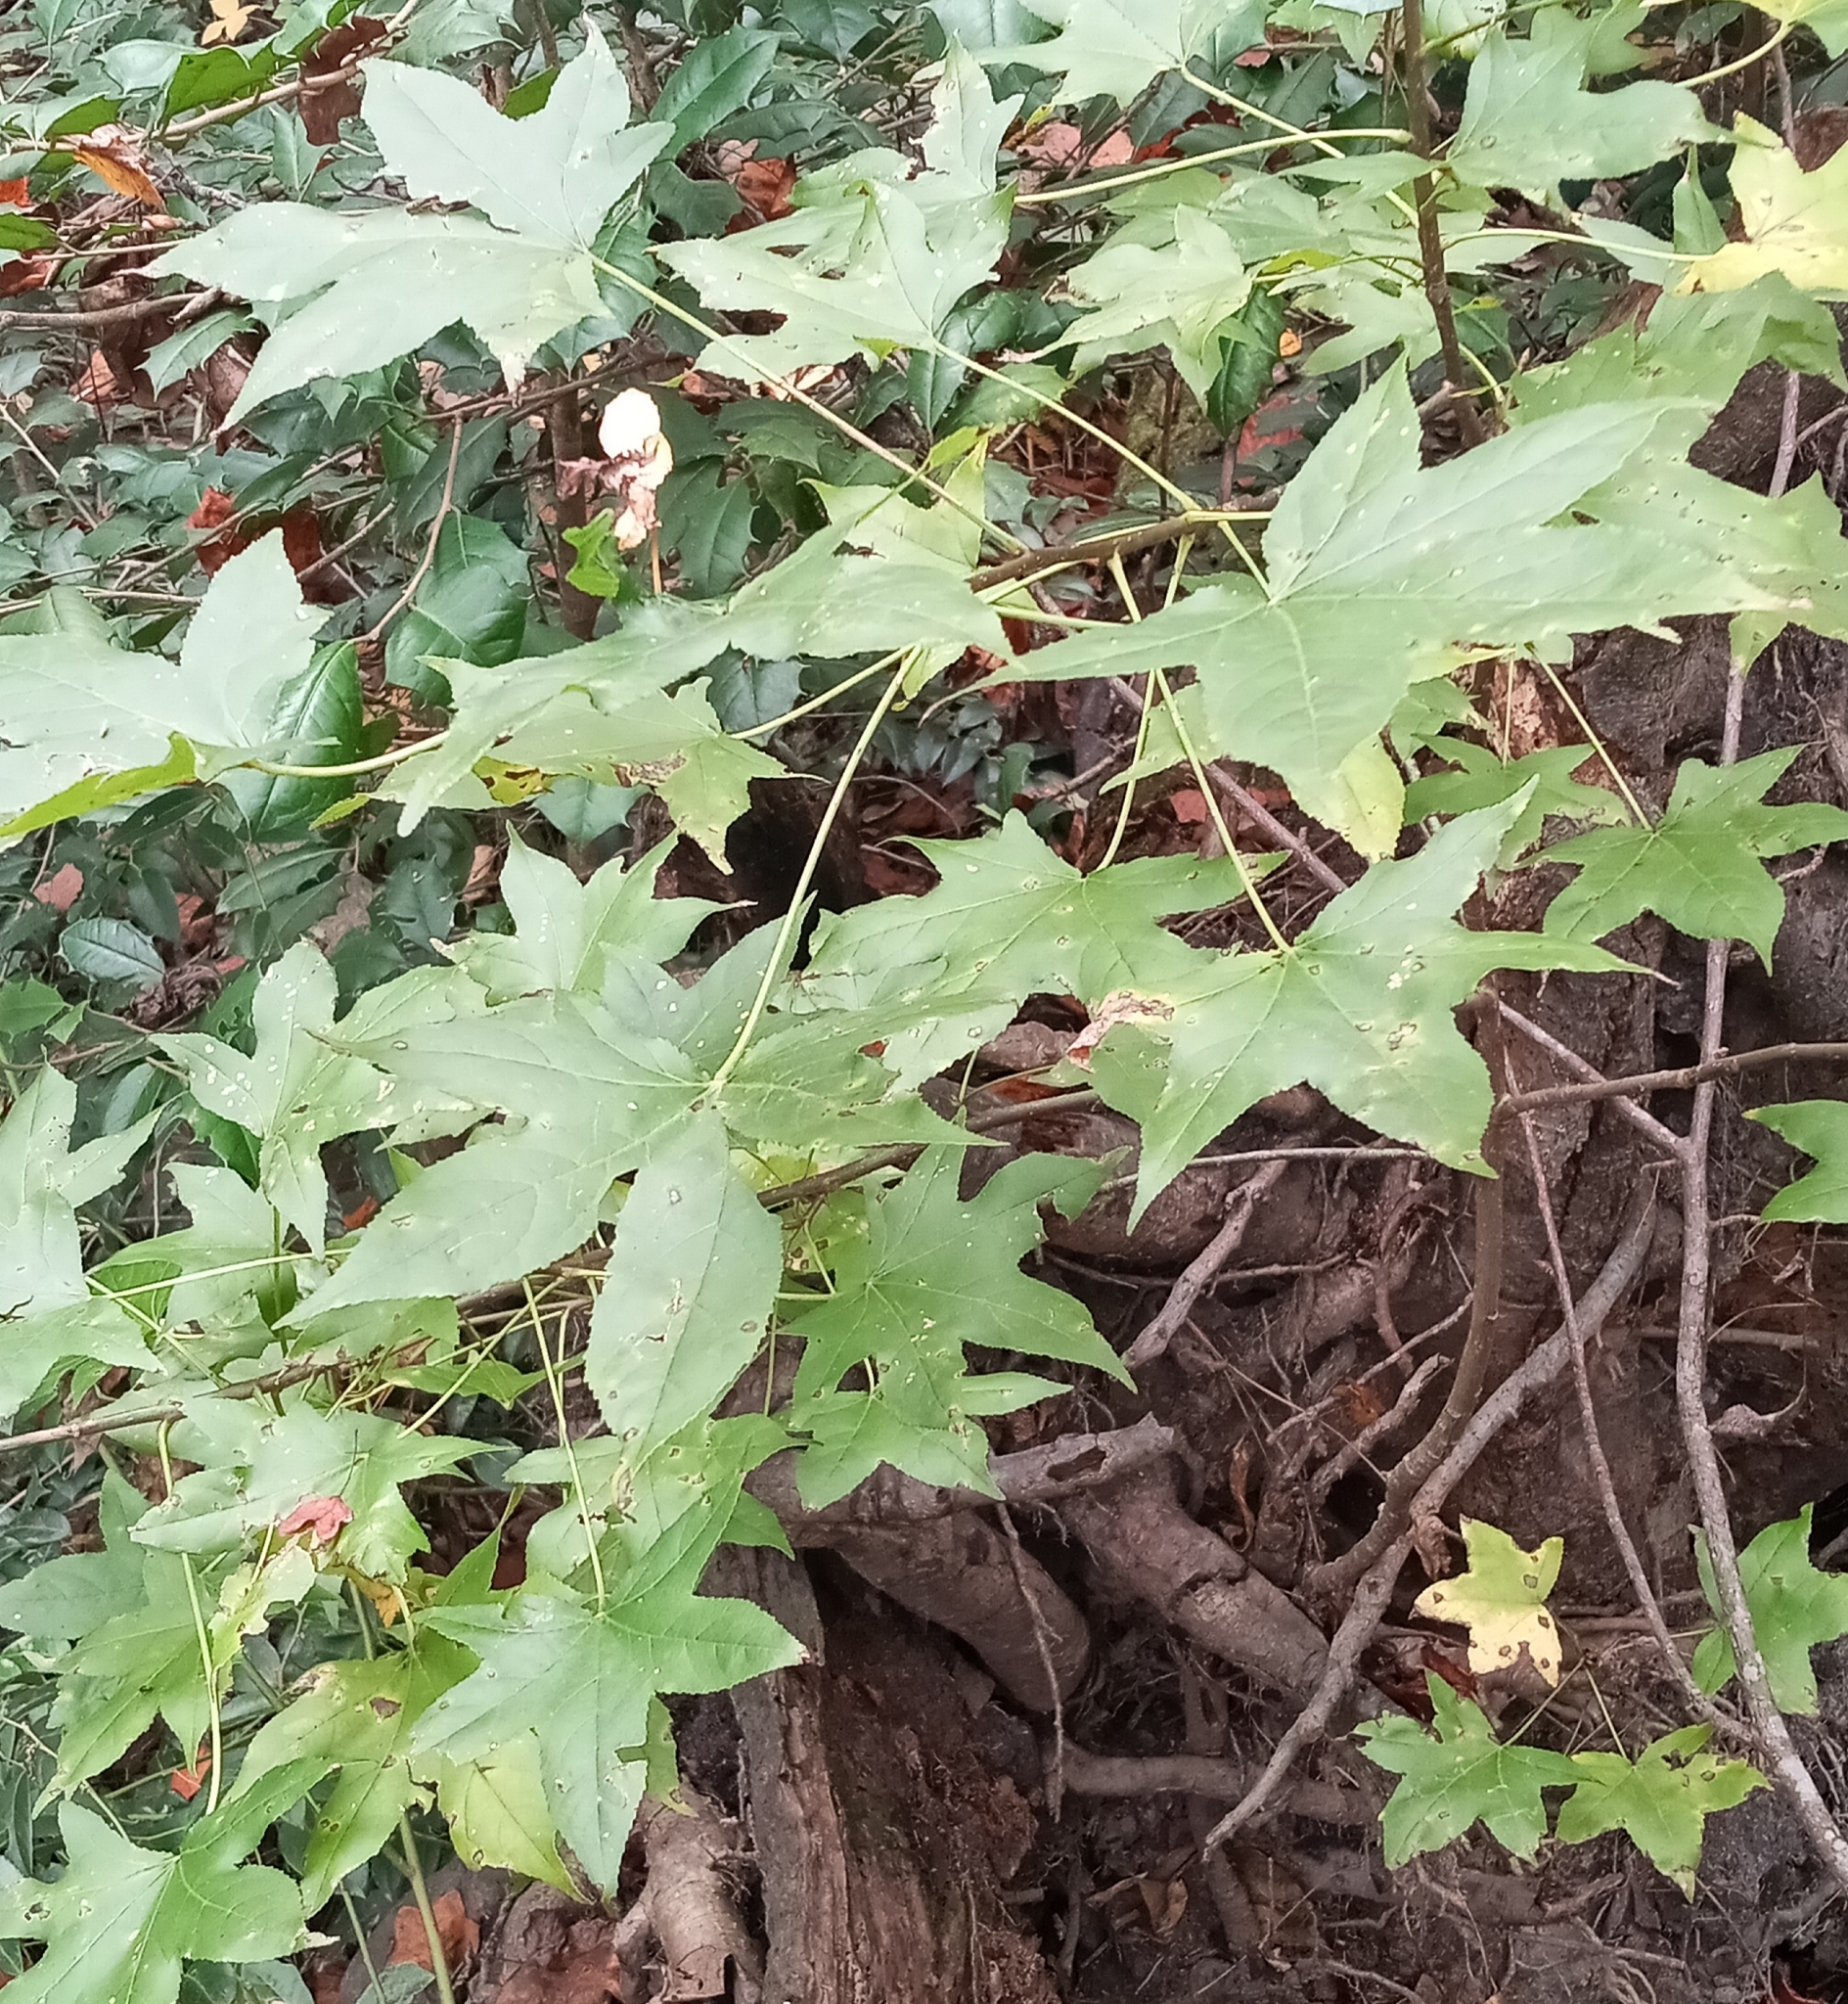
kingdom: Plantae
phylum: Tracheophyta
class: Magnoliopsida
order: Saxifragales
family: Altingiaceae
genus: Liquidambar
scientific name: Liquidambar styraciflua
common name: Sweet gum
